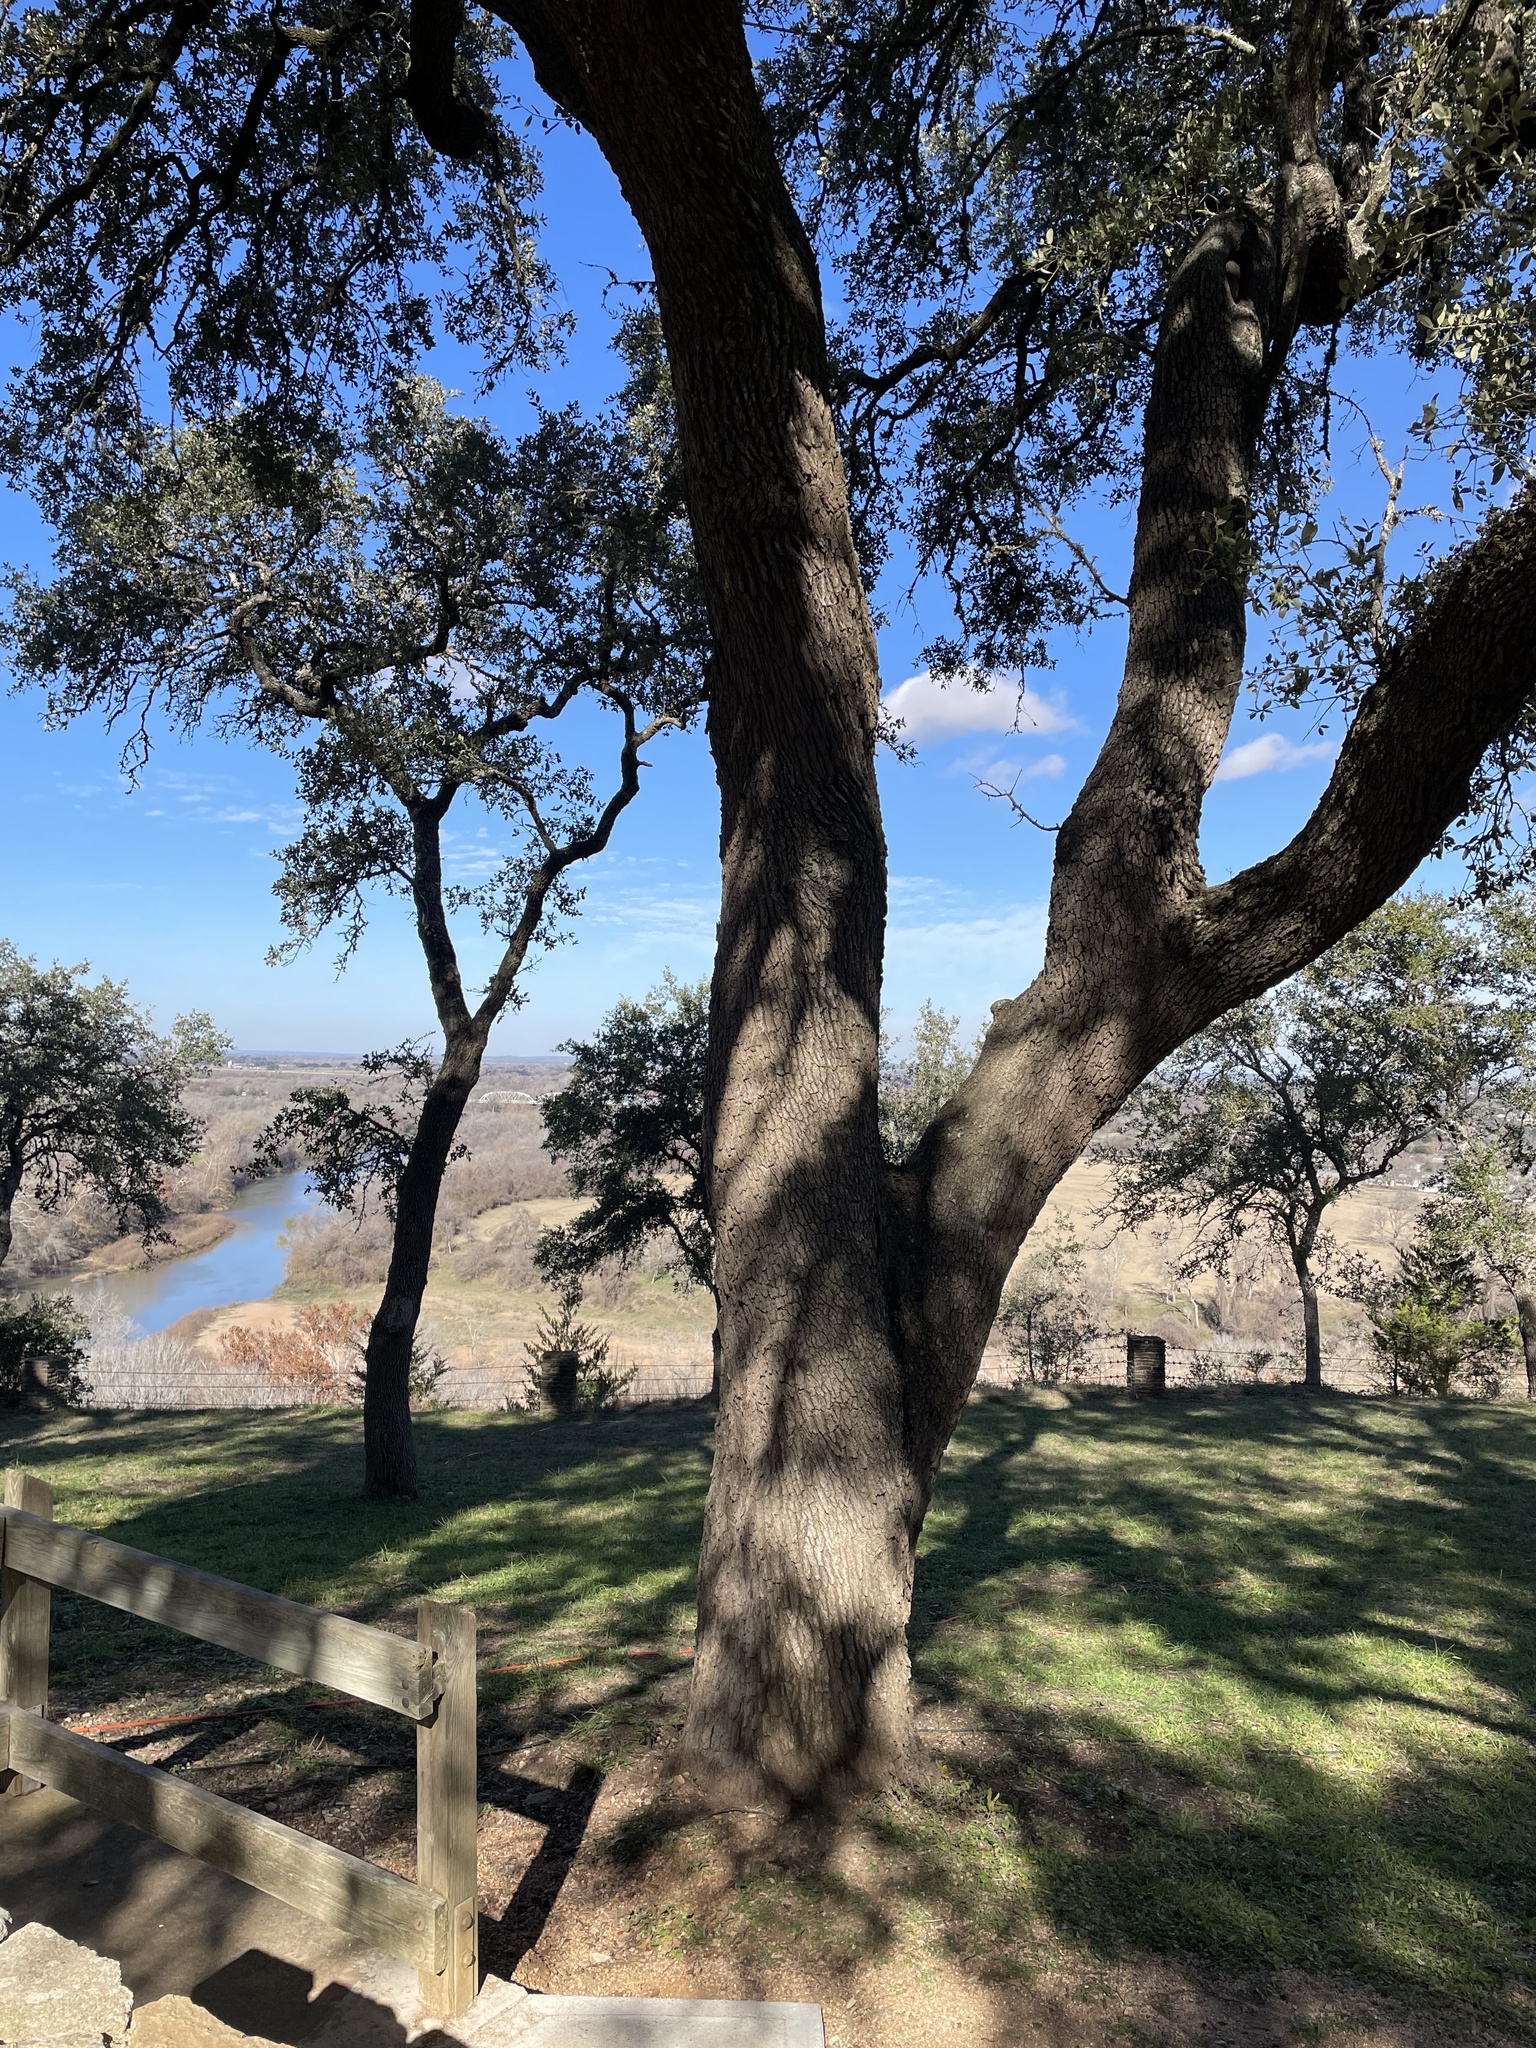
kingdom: Plantae
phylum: Tracheophyta
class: Magnoliopsida
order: Fagales
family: Fagaceae
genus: Quercus
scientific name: Quercus fusiformis
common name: Texas live oak
